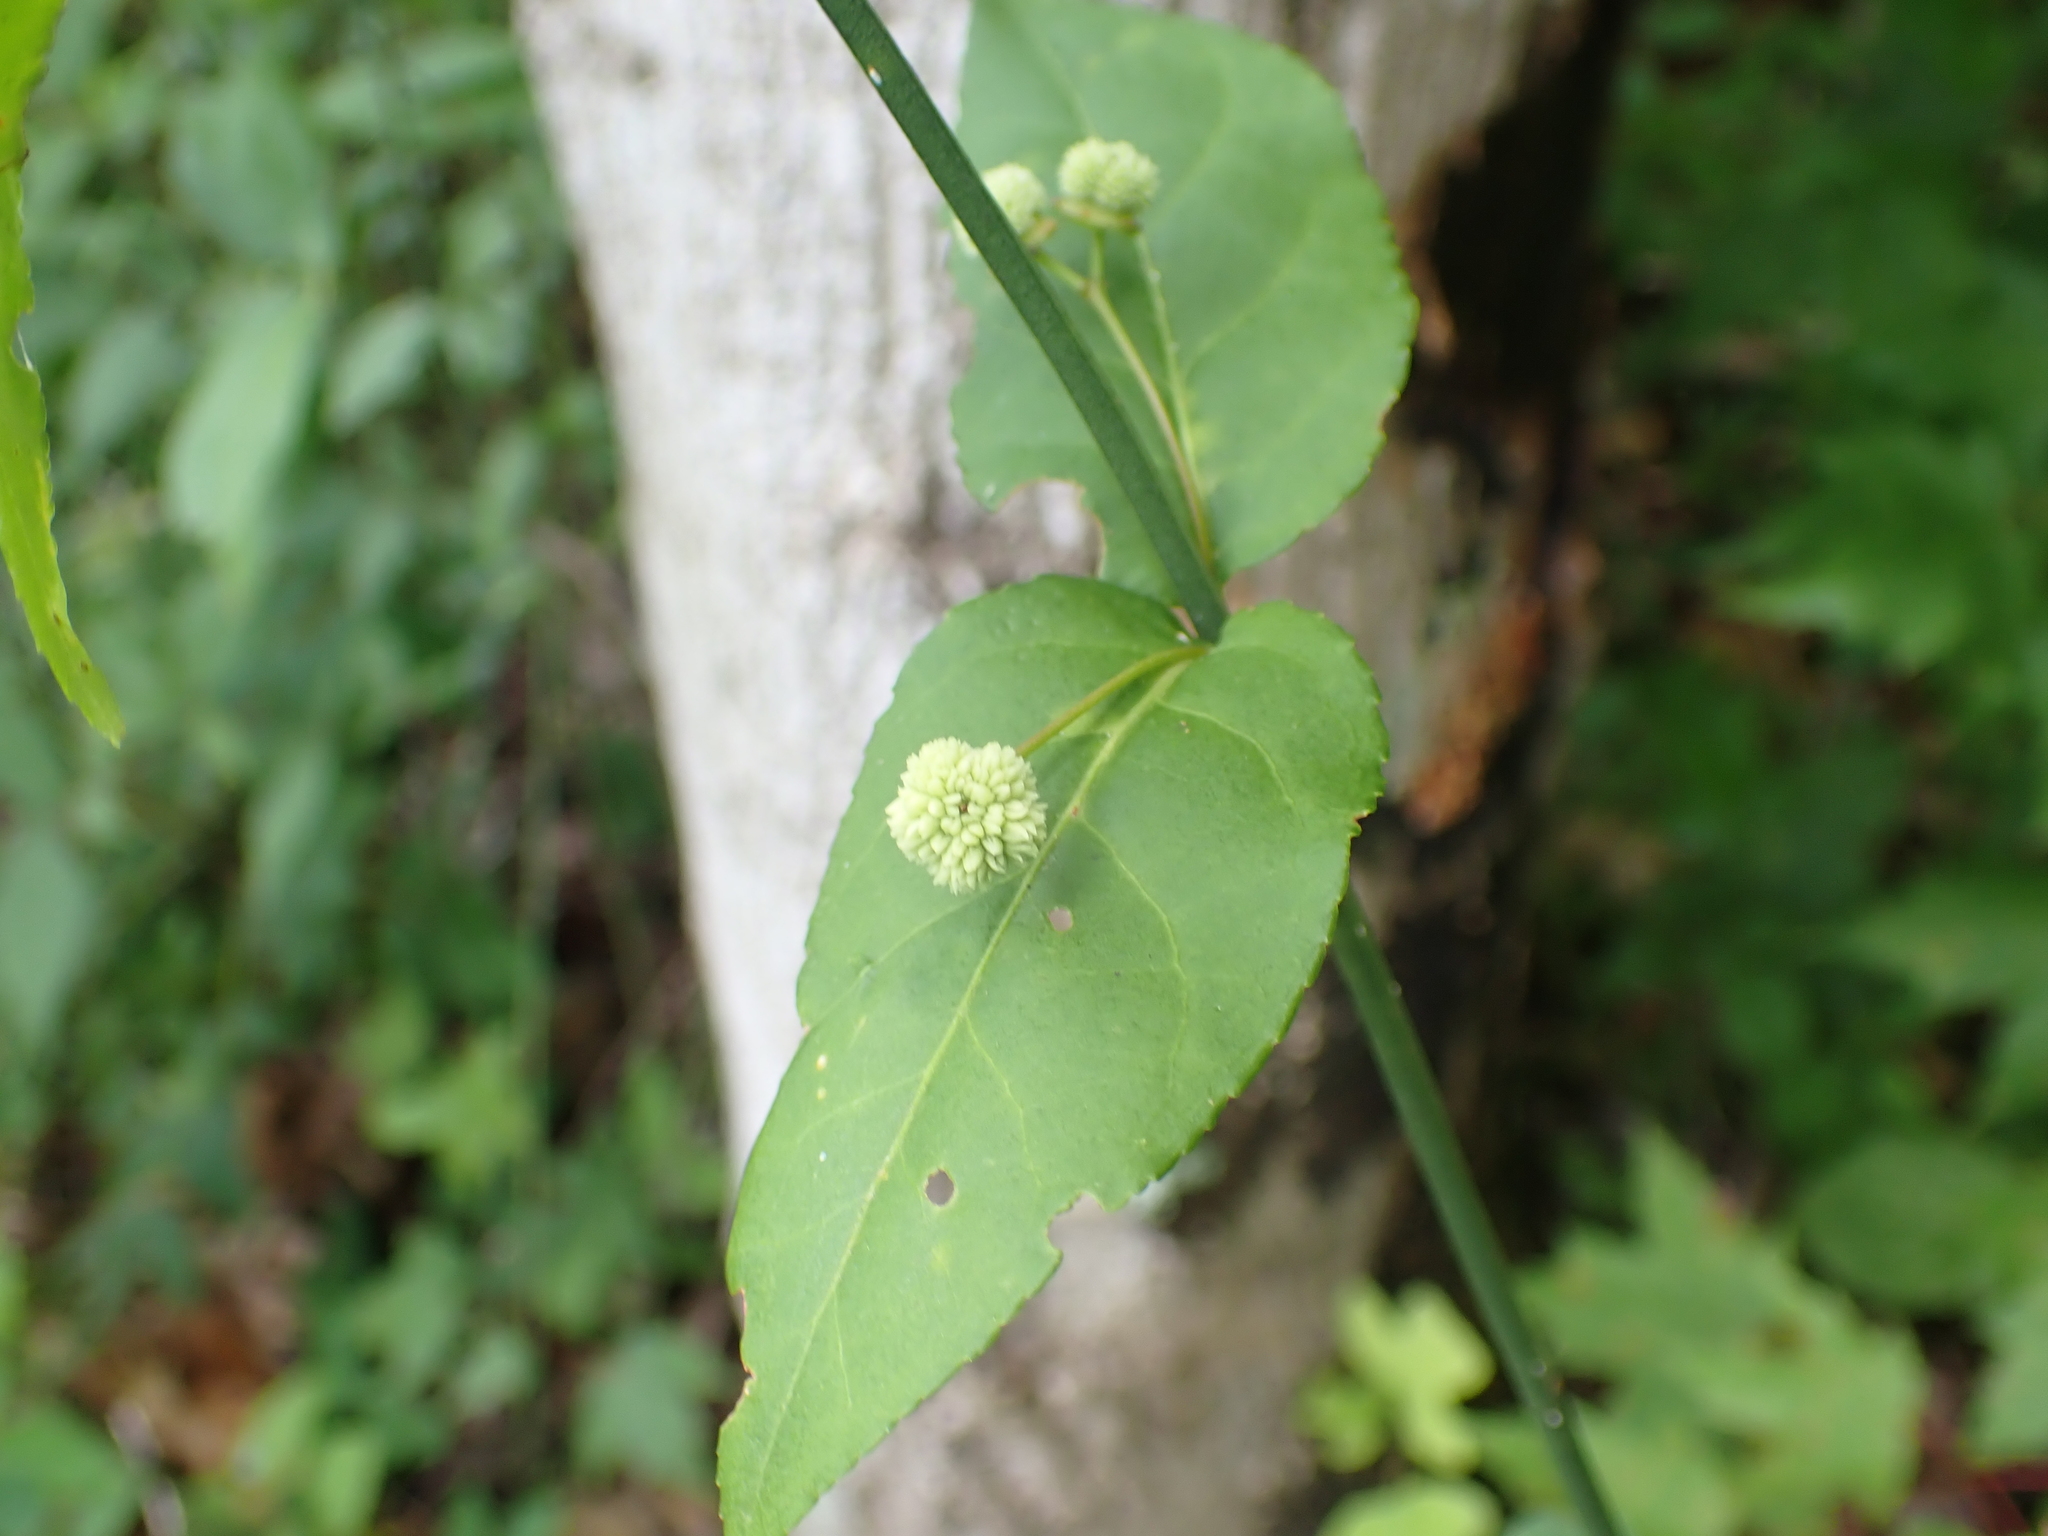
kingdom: Plantae
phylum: Tracheophyta
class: Magnoliopsida
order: Celastrales
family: Celastraceae
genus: Euonymus
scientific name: Euonymus americanus
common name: Bursting-heart
